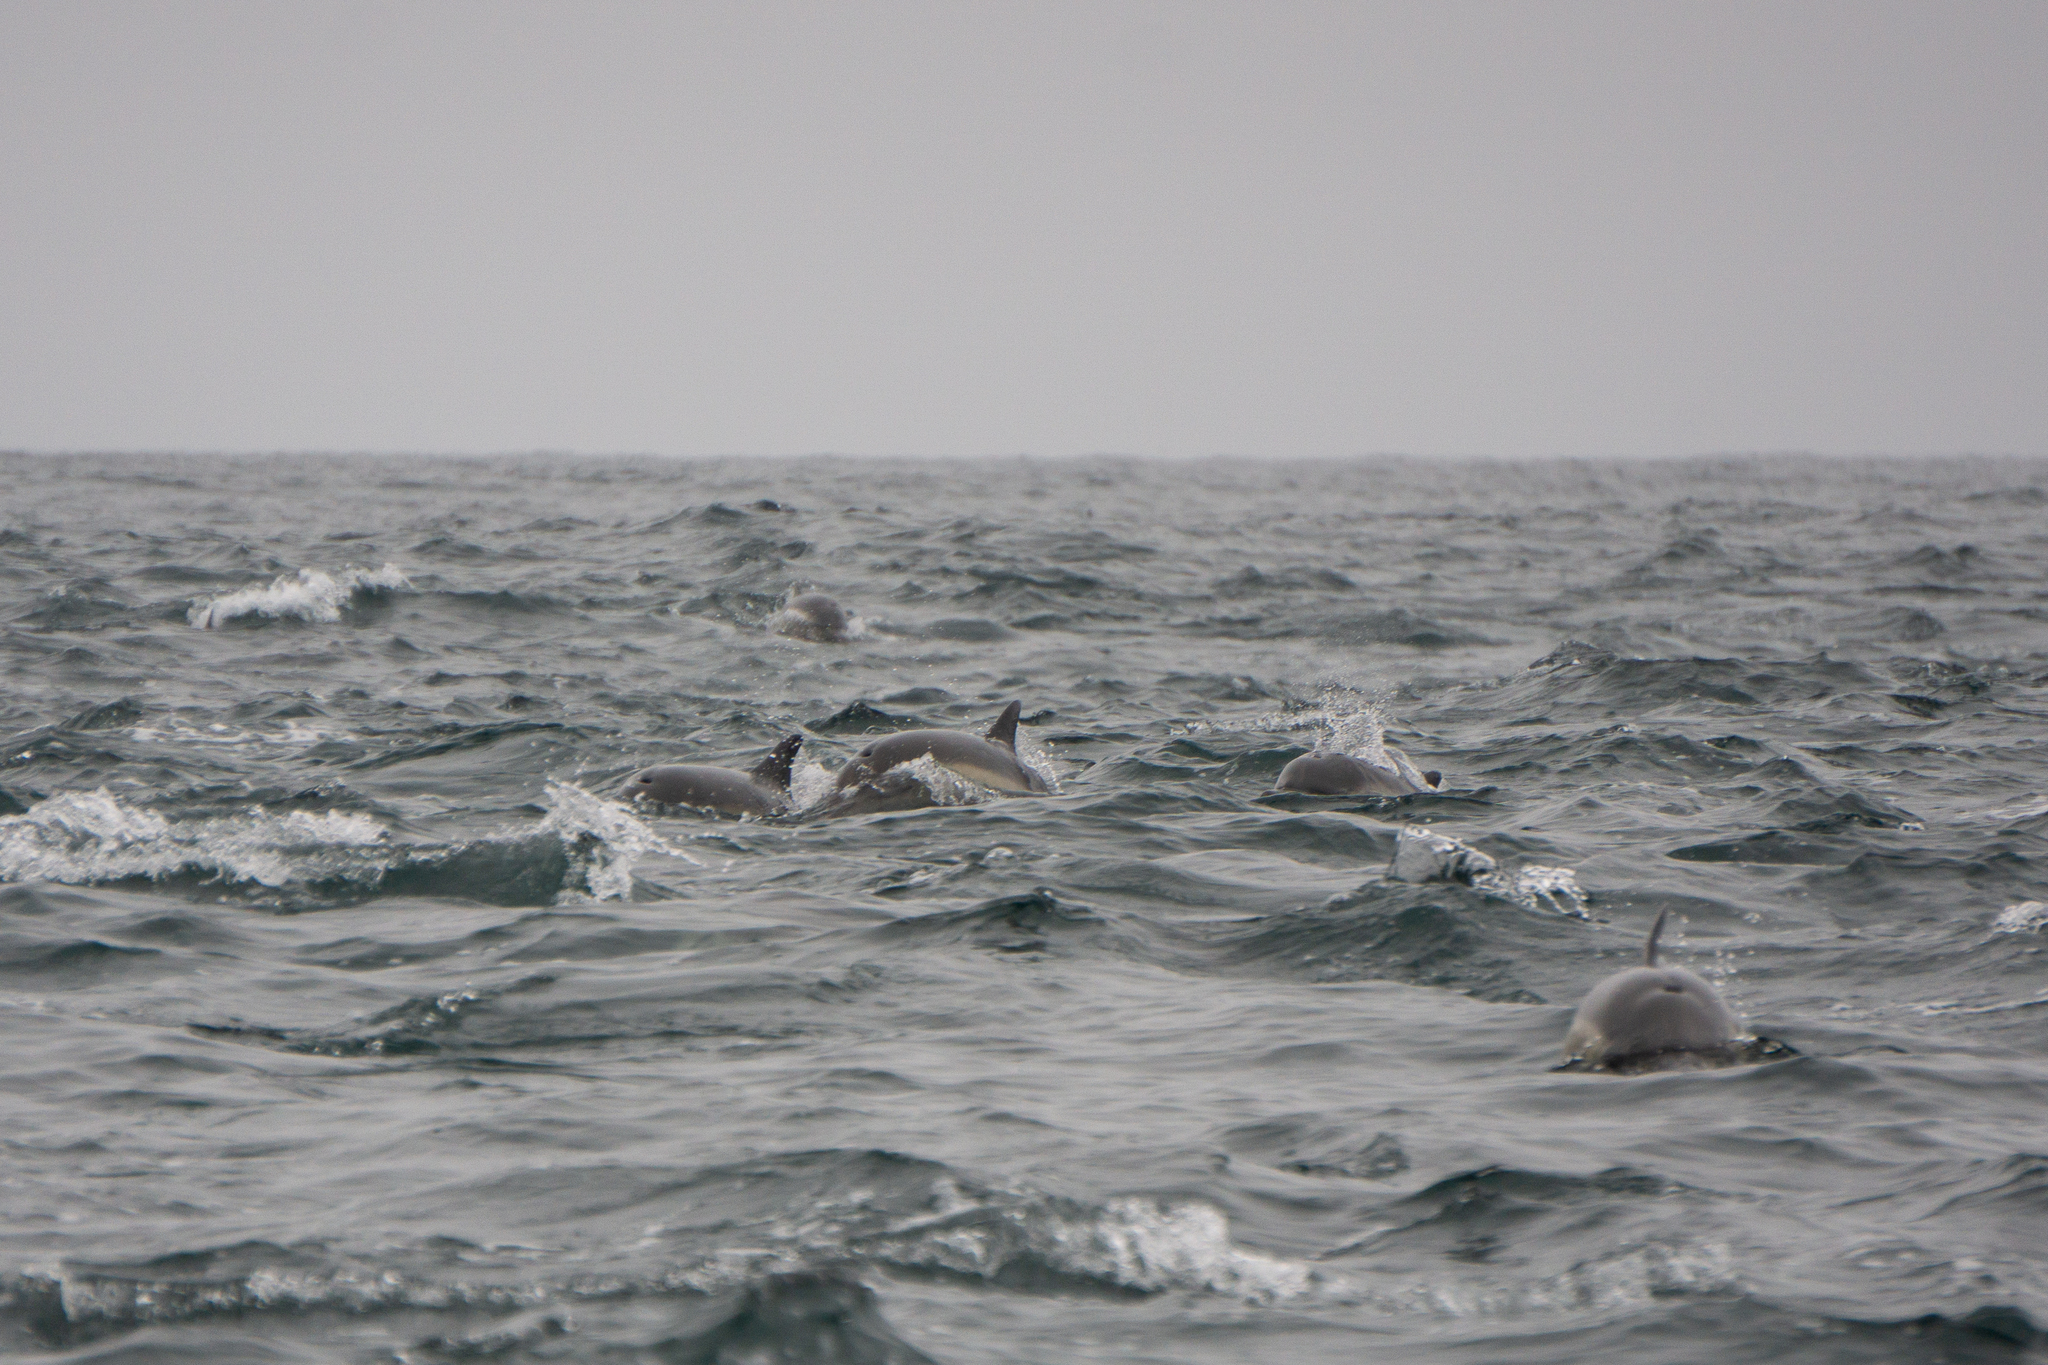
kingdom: Animalia
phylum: Chordata
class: Mammalia
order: Cetacea
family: Delphinidae
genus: Delphinus
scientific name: Delphinus delphis
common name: Common dolphin
